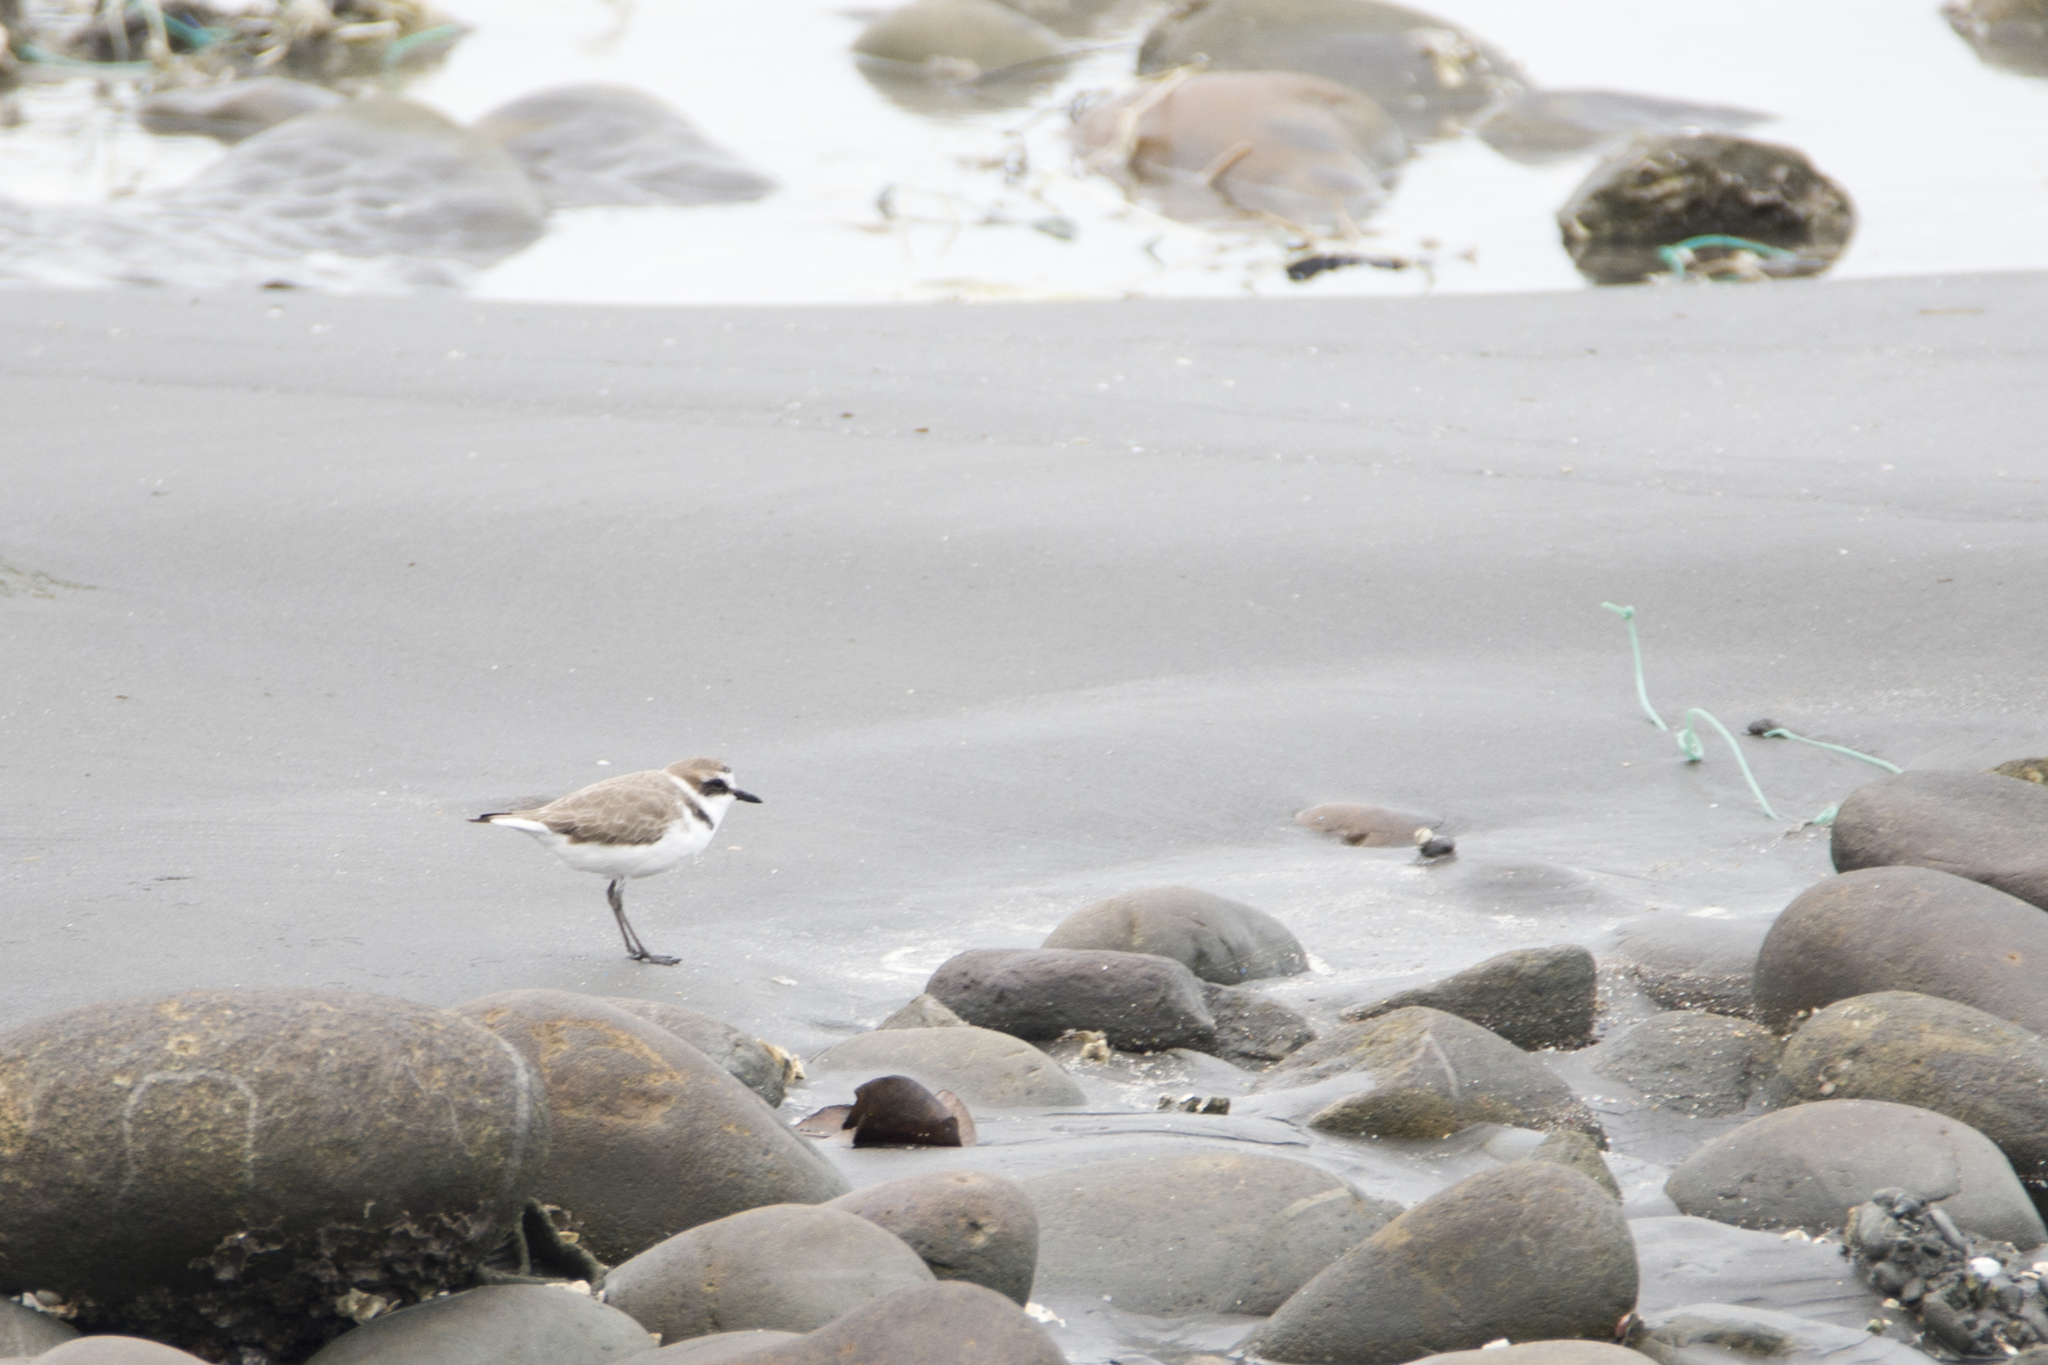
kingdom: Animalia
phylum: Chordata
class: Aves
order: Charadriiformes
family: Charadriidae
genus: Charadrius
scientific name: Charadrius alexandrinus
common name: Kentish plover
